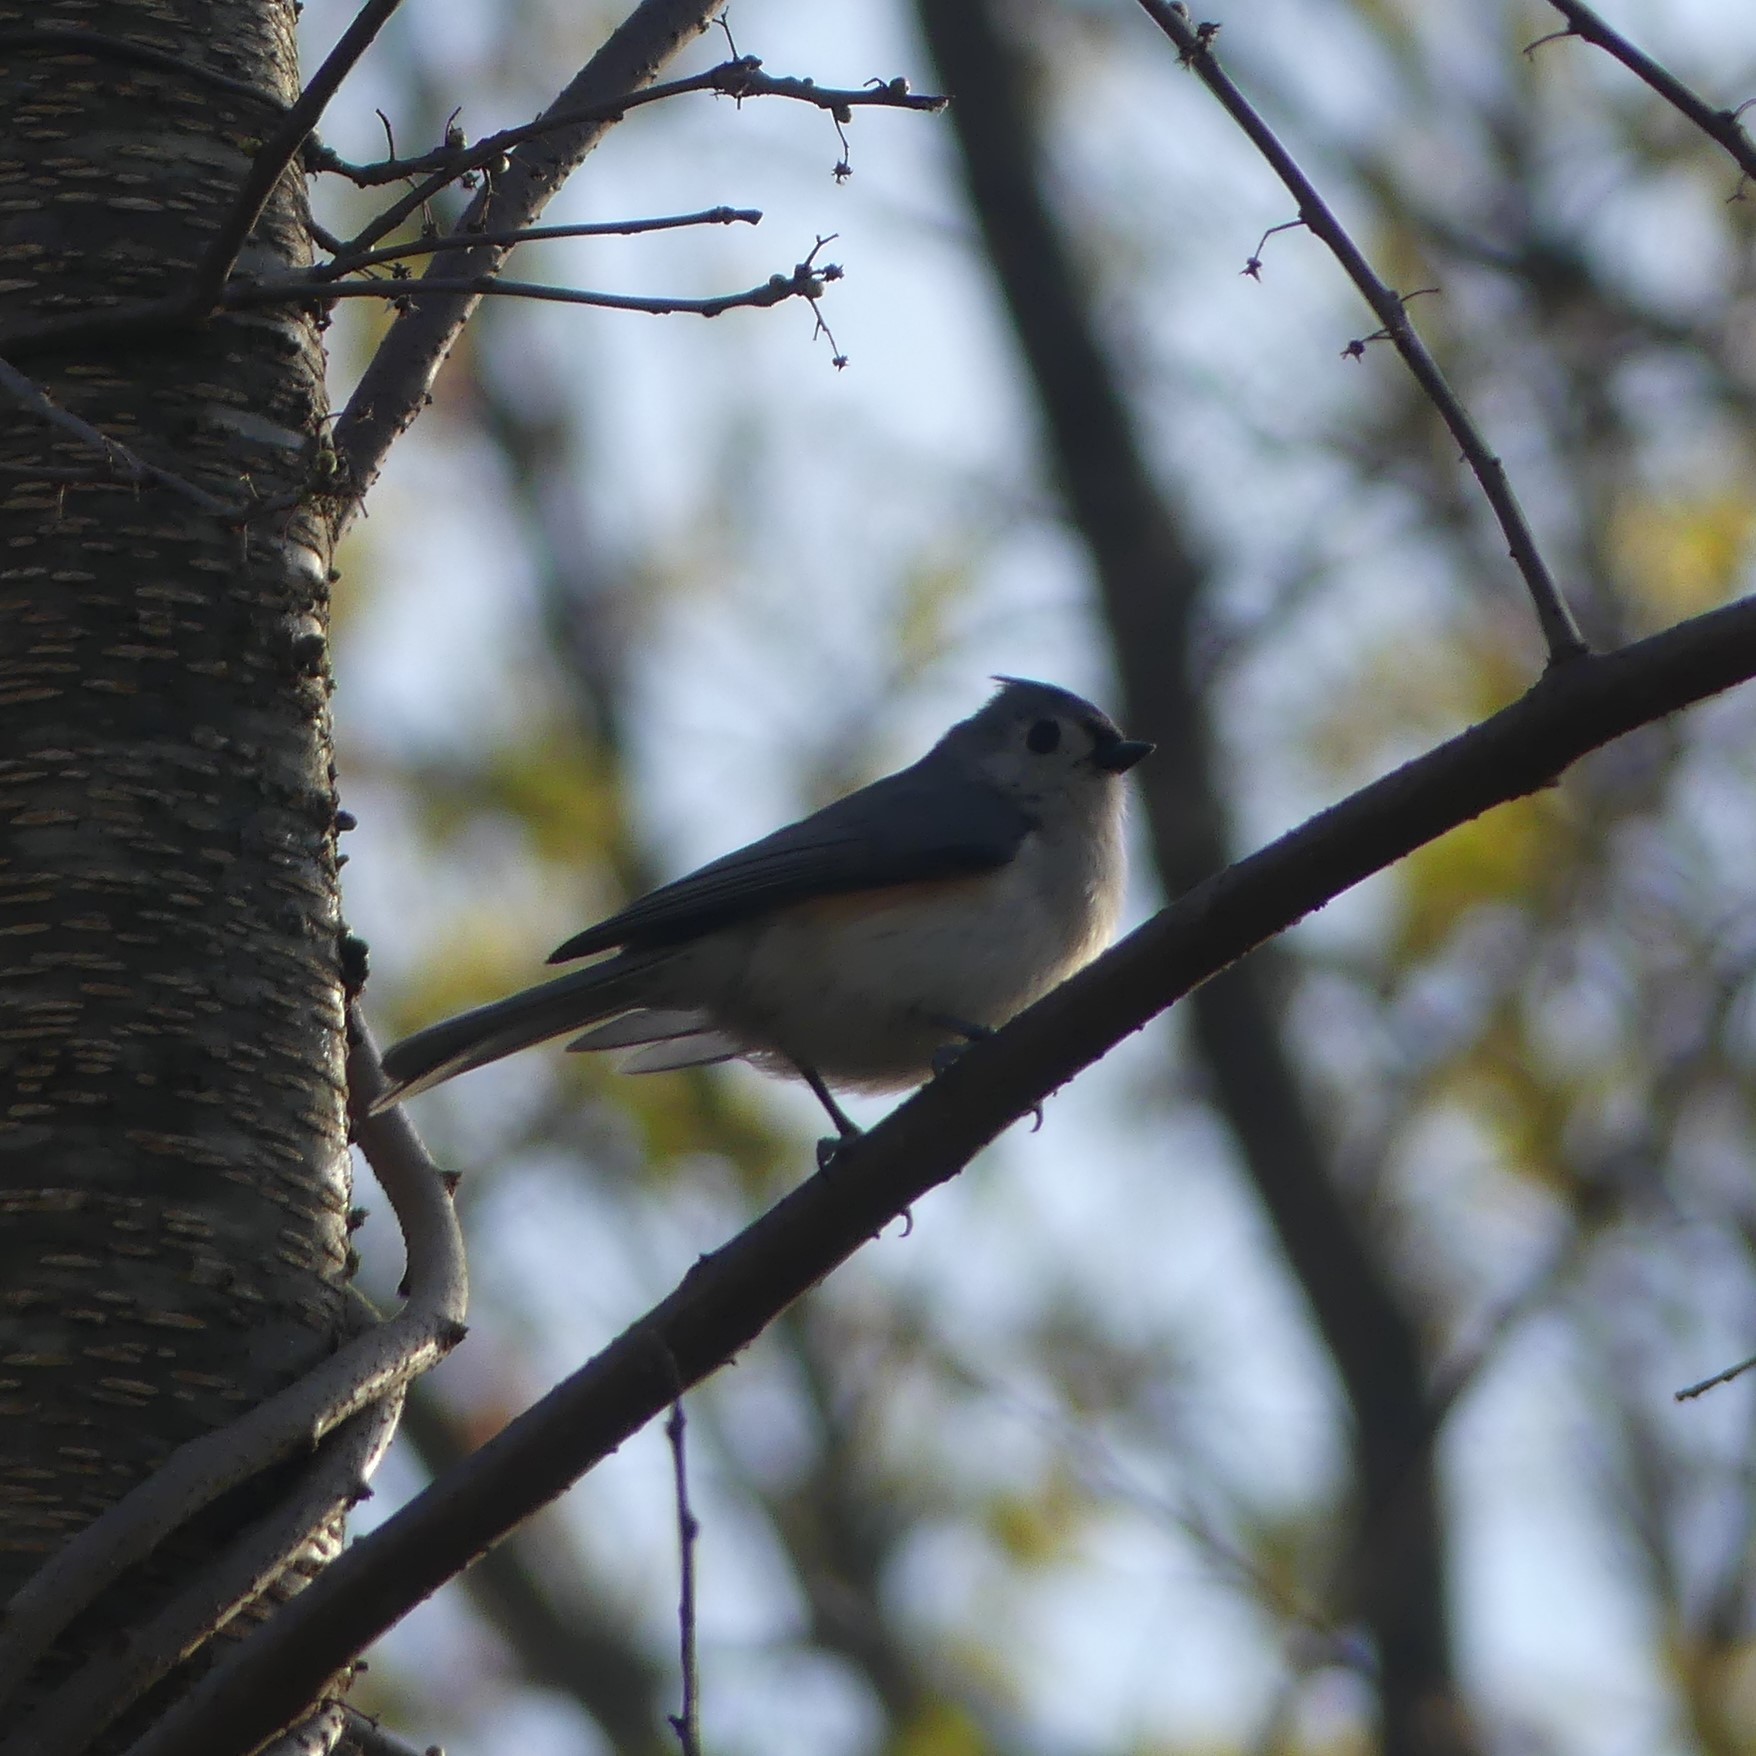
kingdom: Animalia
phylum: Chordata
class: Aves
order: Passeriformes
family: Paridae
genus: Baeolophus
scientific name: Baeolophus bicolor
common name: Tufted titmouse
